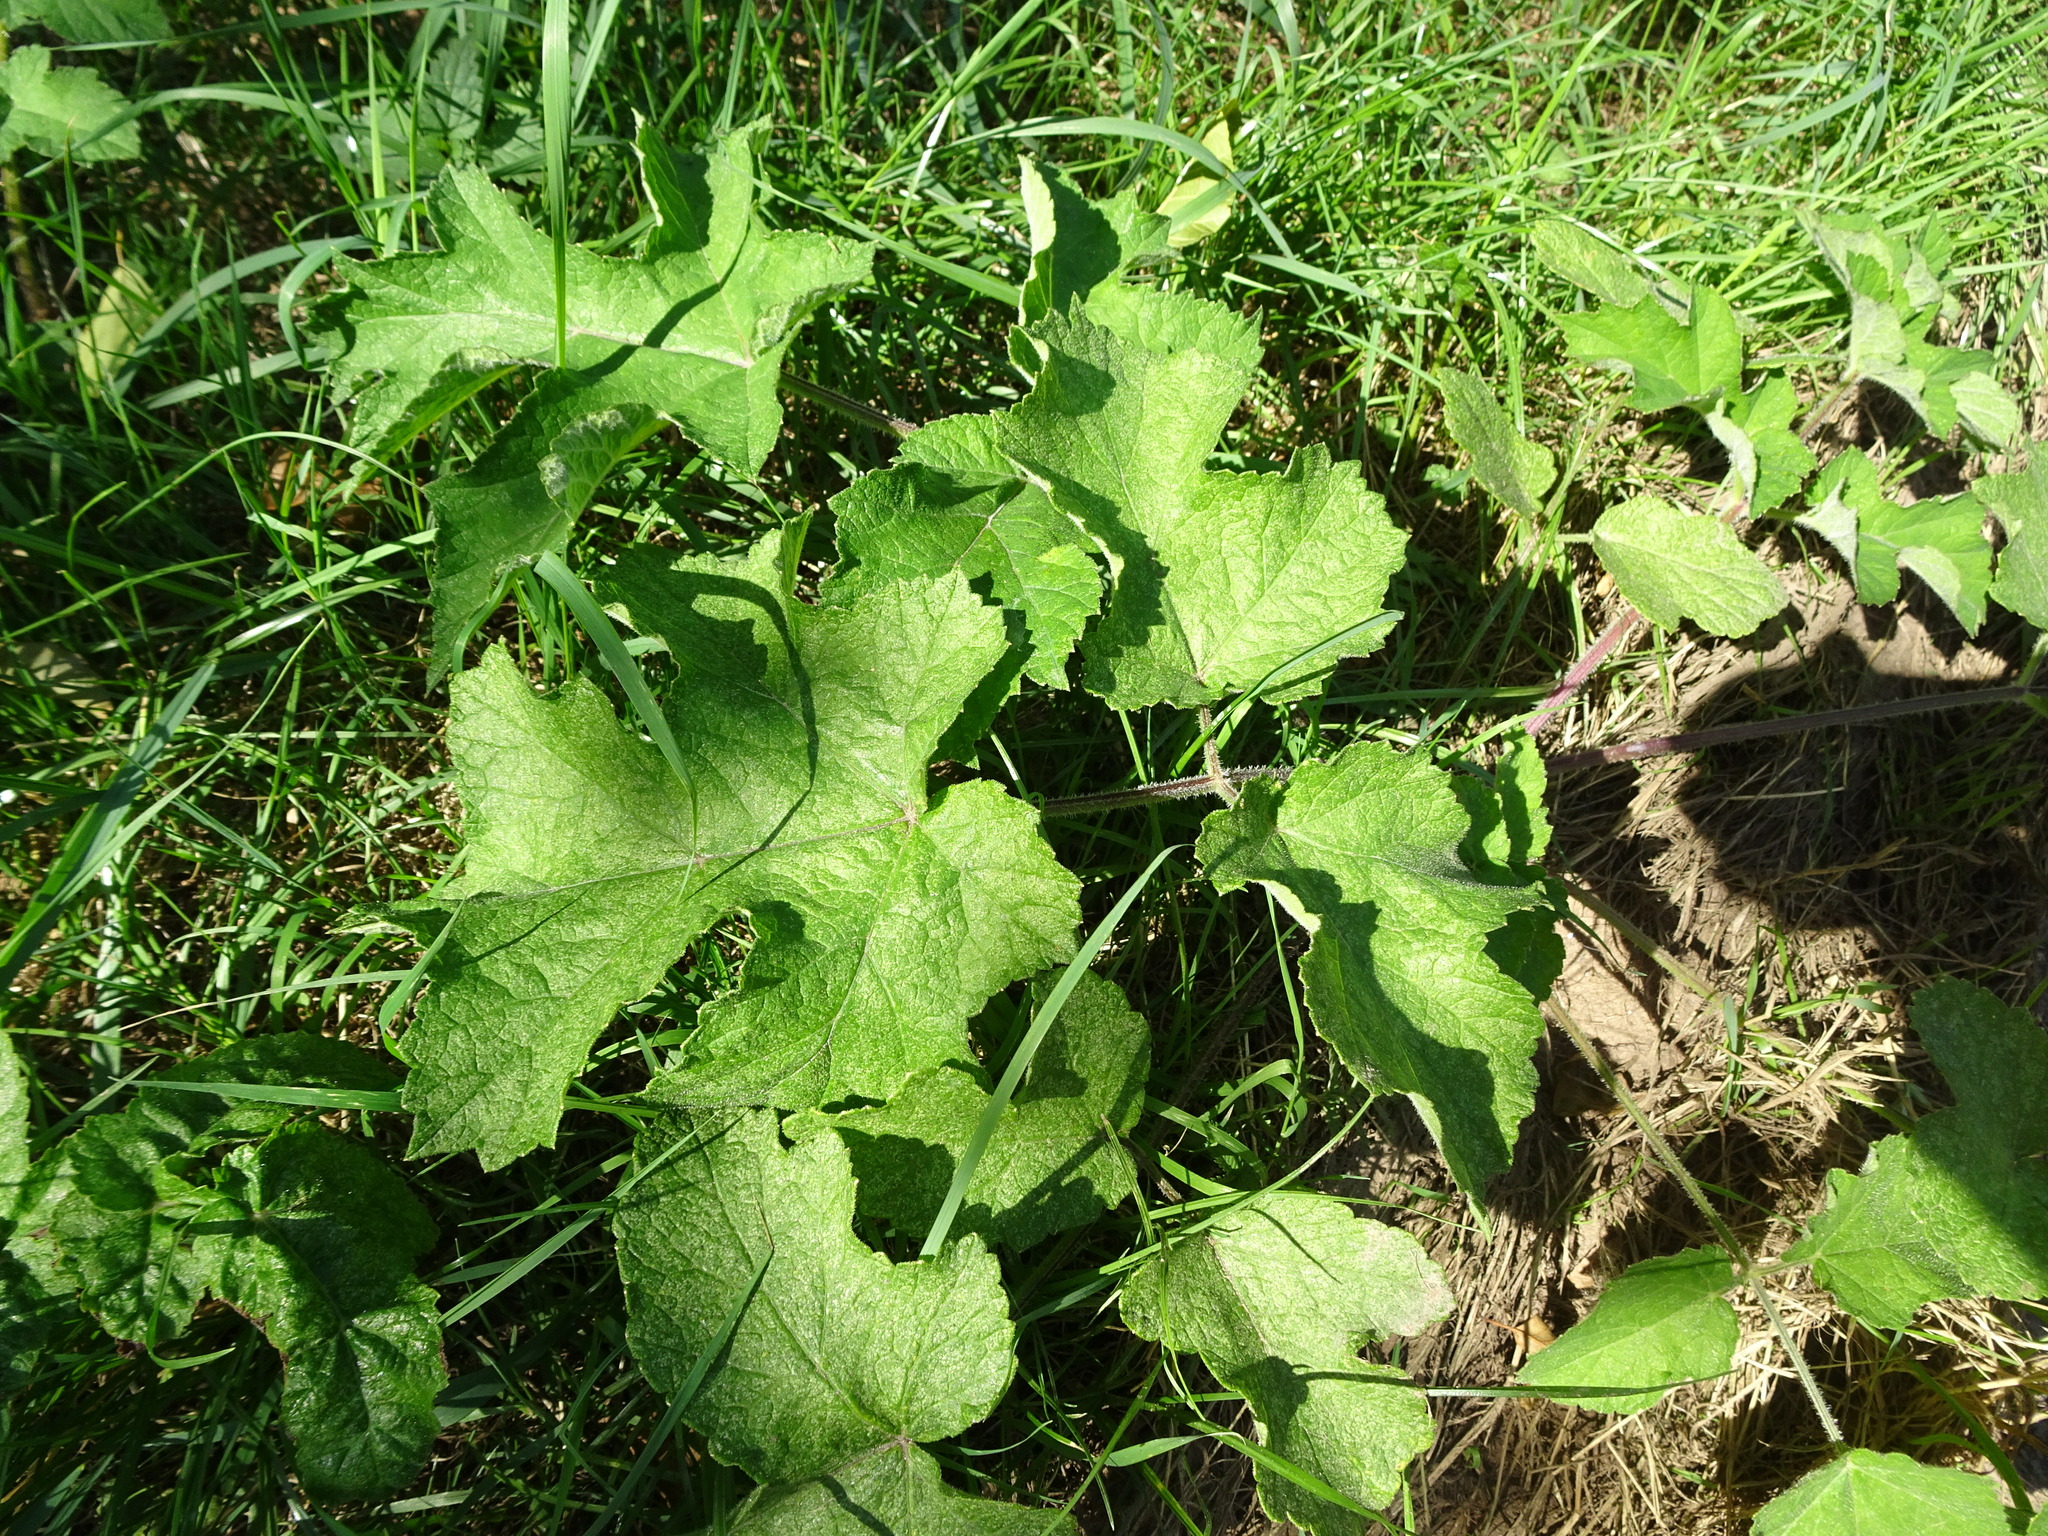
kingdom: Plantae
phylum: Tracheophyta
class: Magnoliopsida
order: Apiales
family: Apiaceae
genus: Heracleum
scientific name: Heracleum sphondylium
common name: Hogweed
